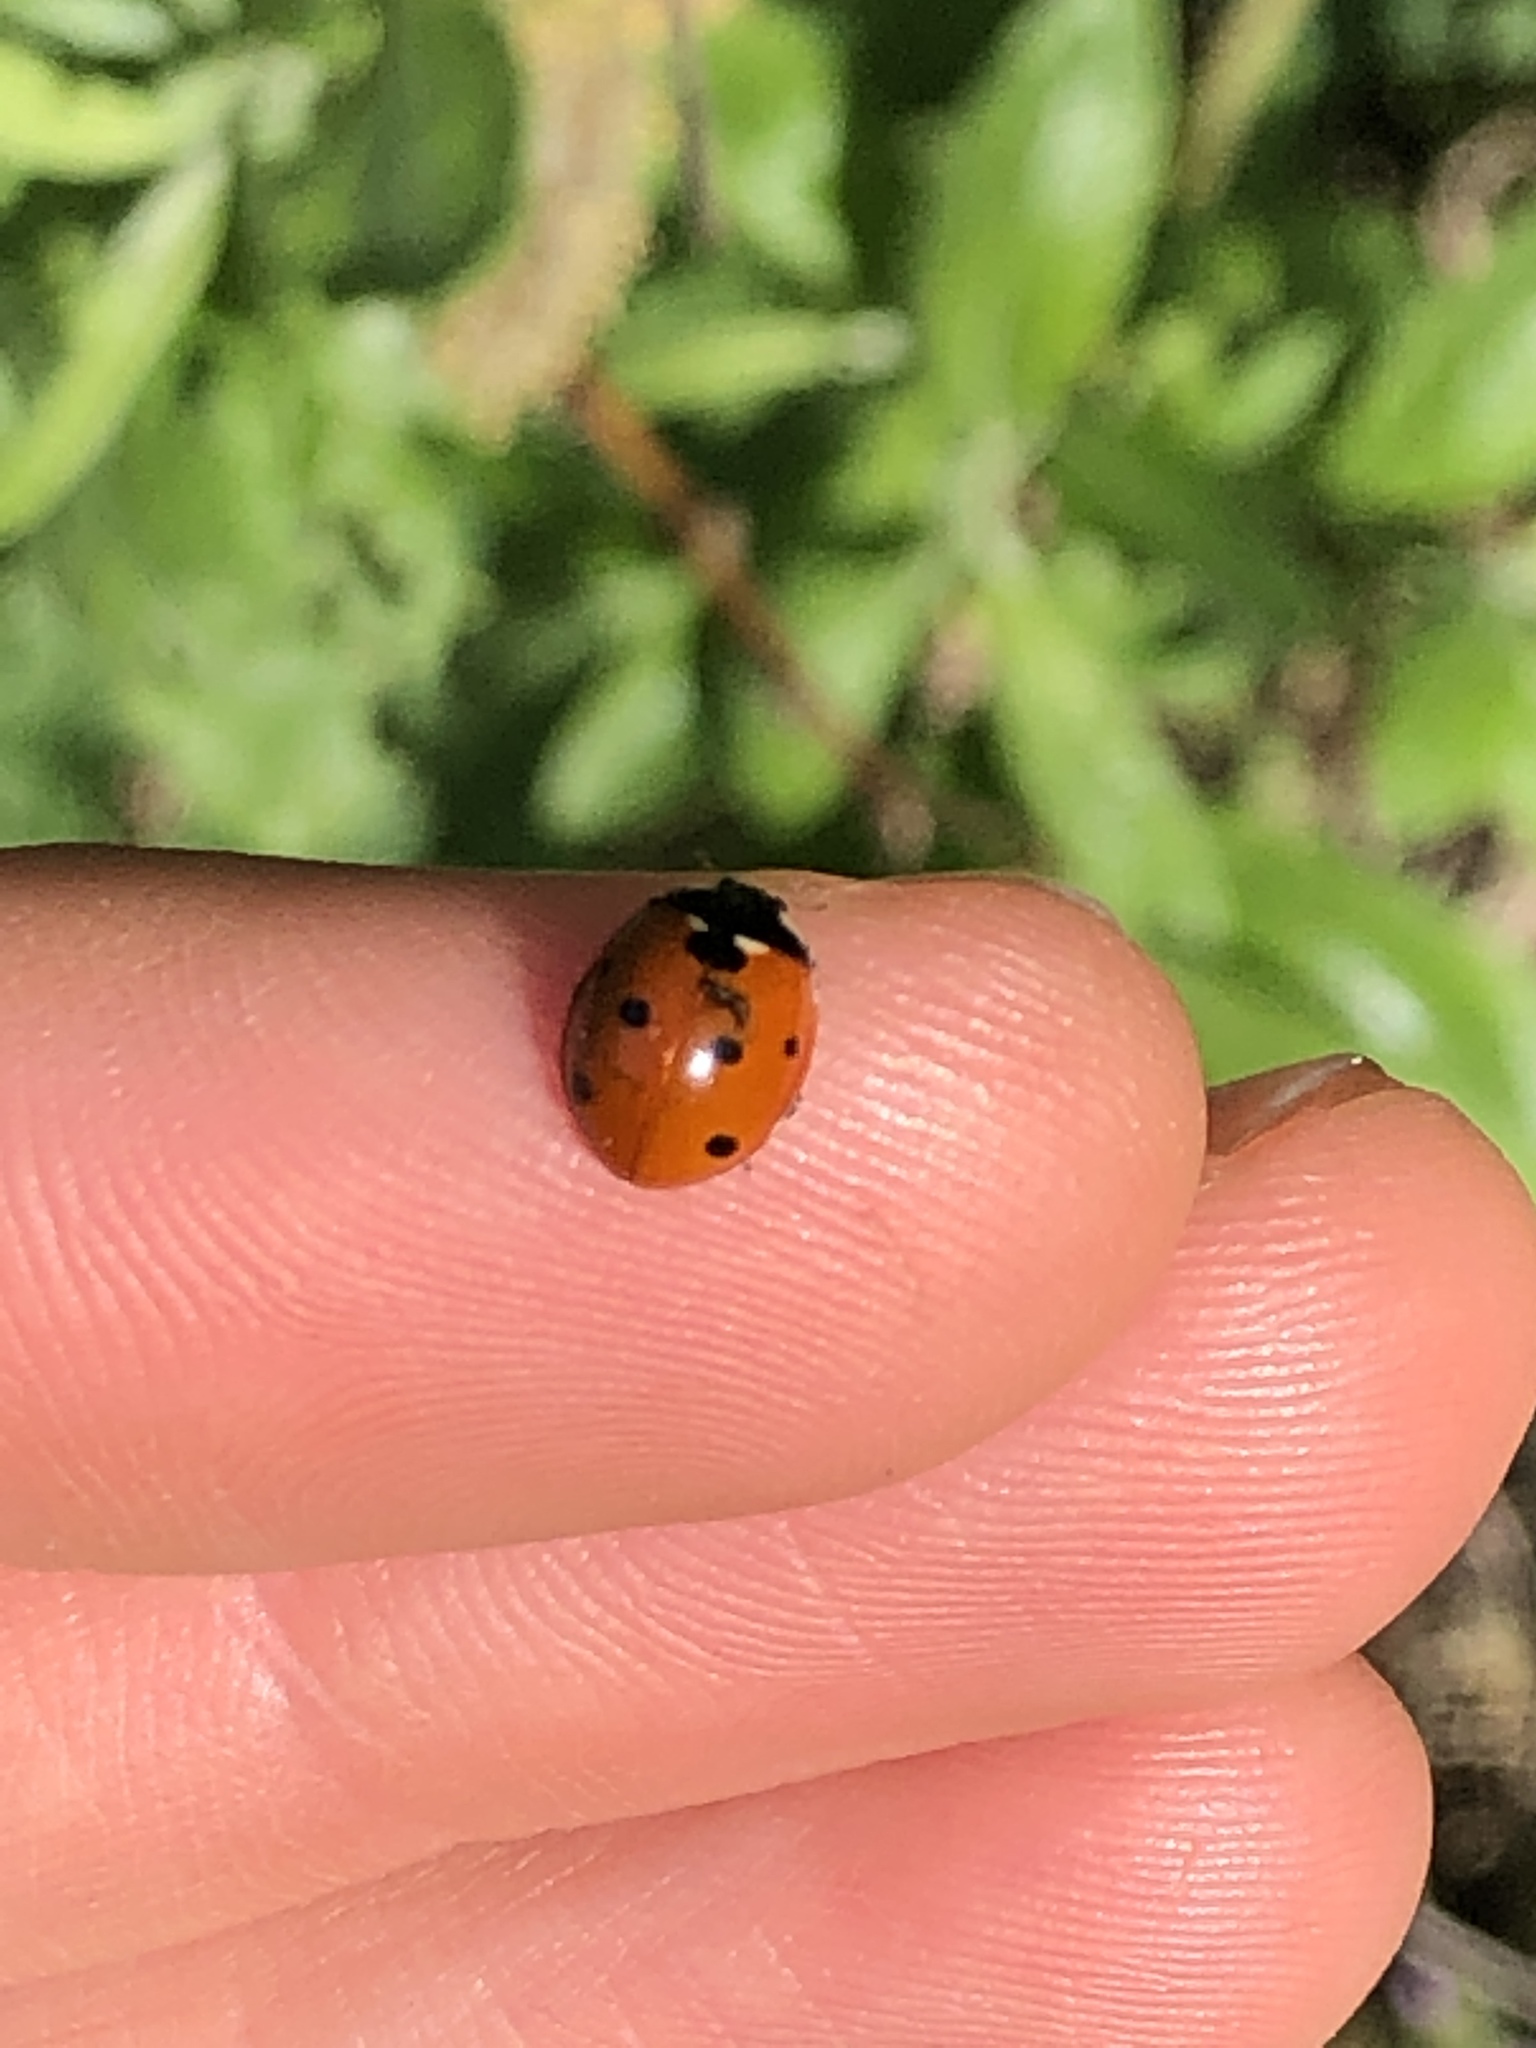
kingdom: Animalia
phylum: Arthropoda
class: Insecta
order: Coleoptera
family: Coccinellidae
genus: Coccinella
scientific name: Coccinella septempunctata
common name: Sevenspotted lady beetle
